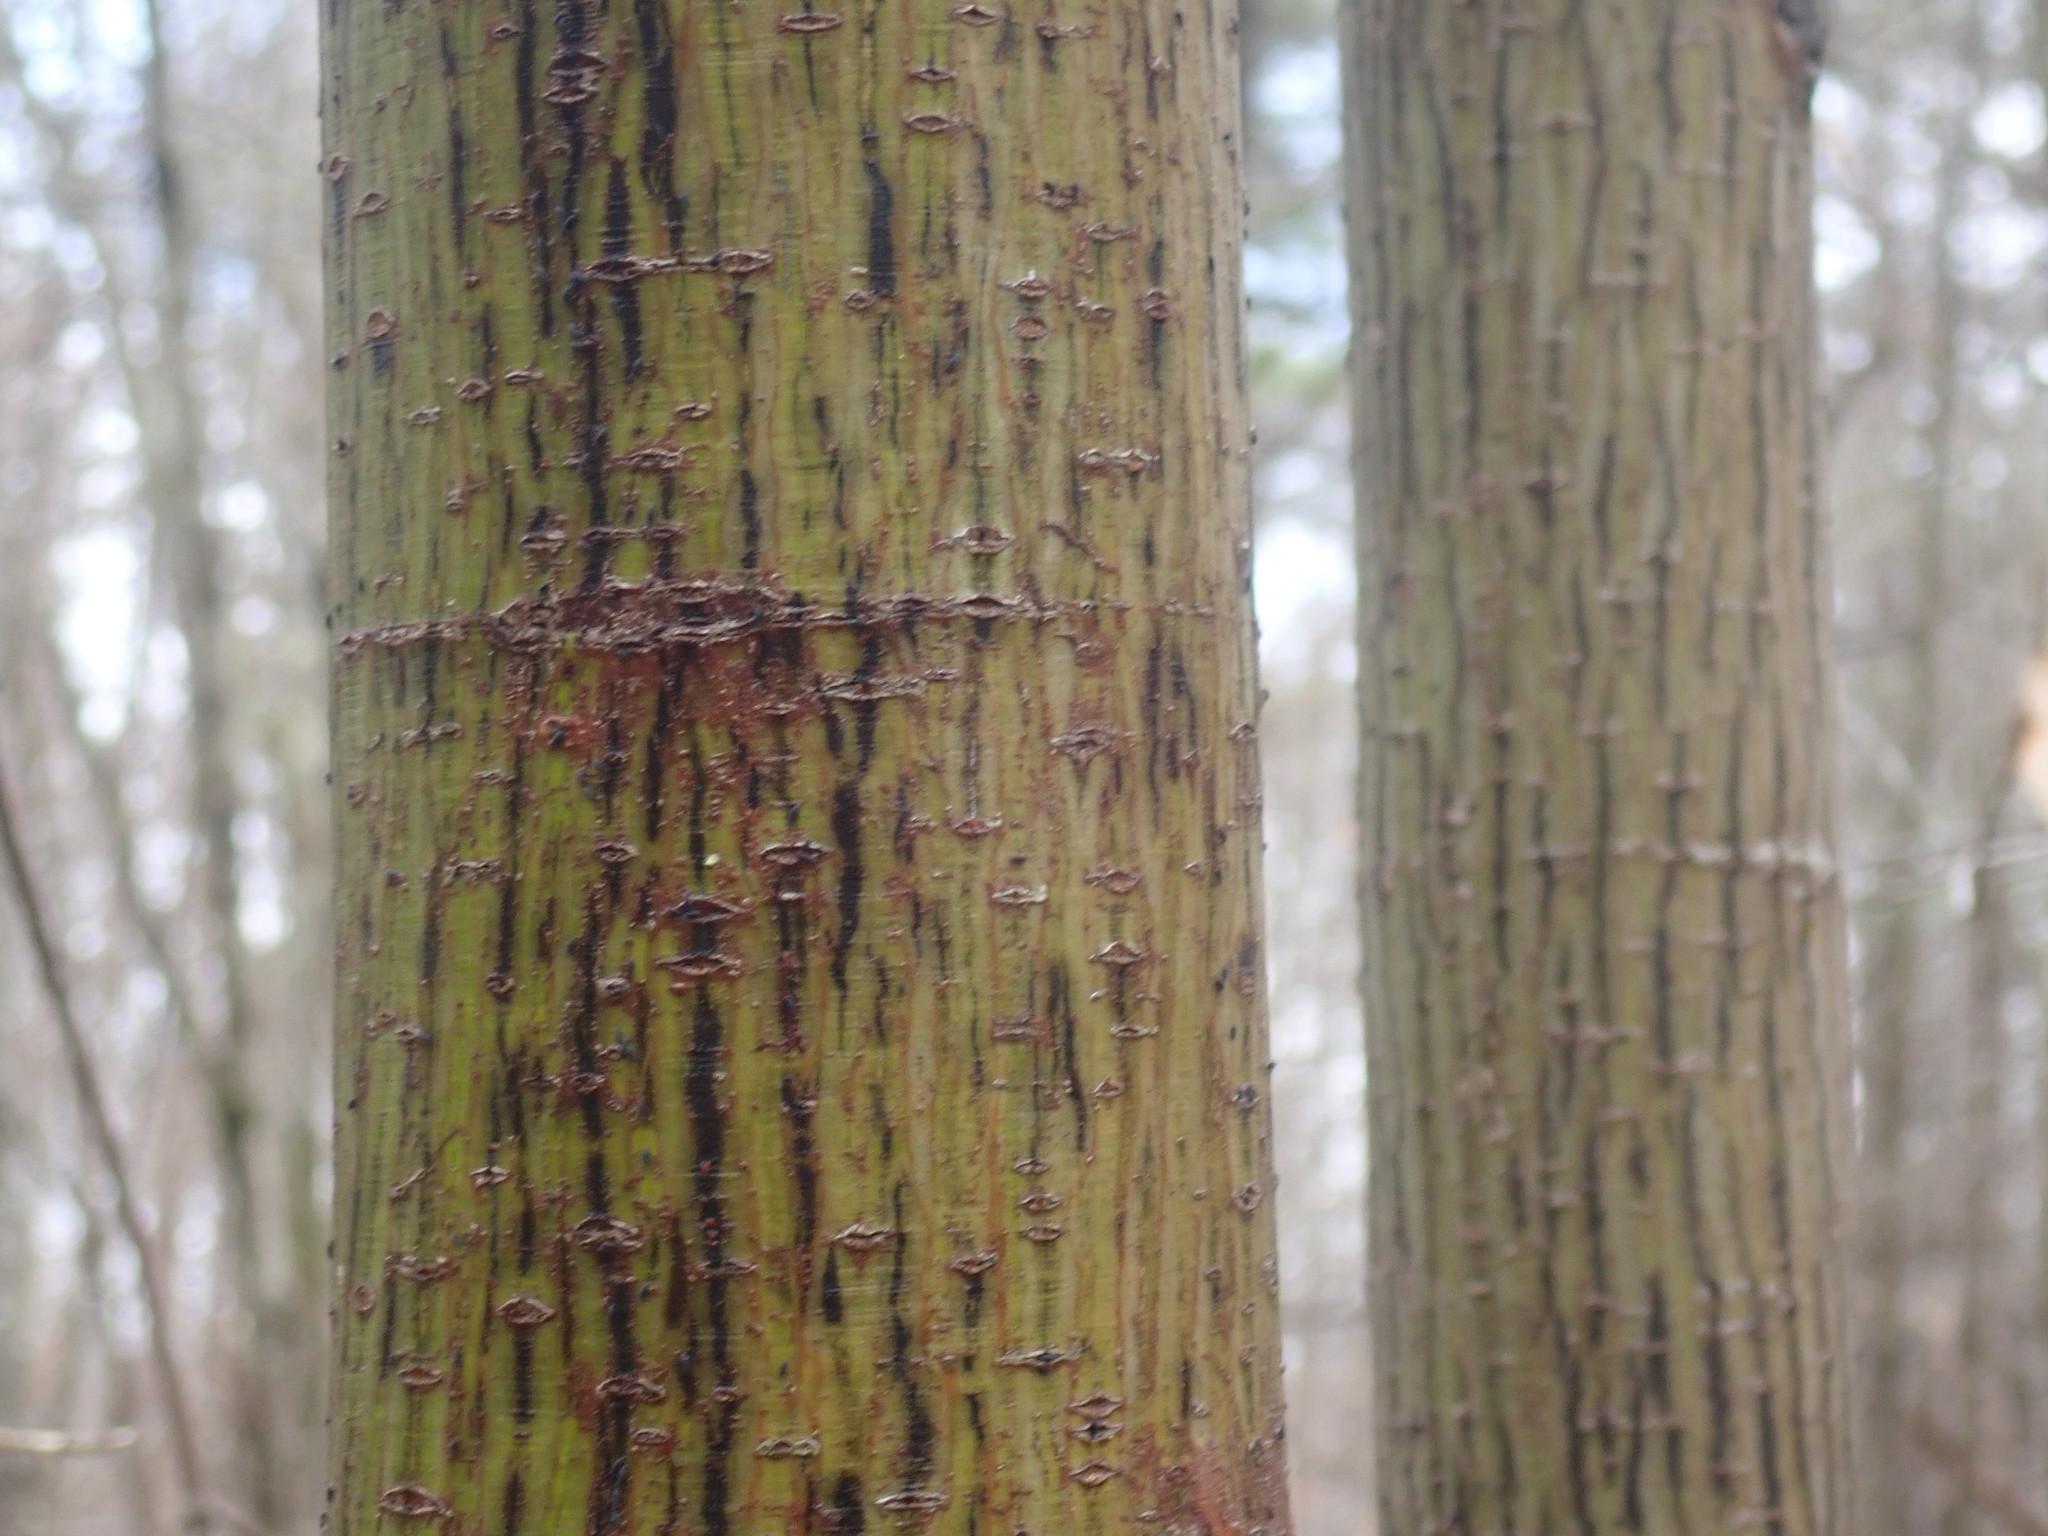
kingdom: Plantae
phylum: Tracheophyta
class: Magnoliopsida
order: Sapindales
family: Sapindaceae
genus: Acer
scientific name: Acer pensylvanicum
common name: Moosewood
